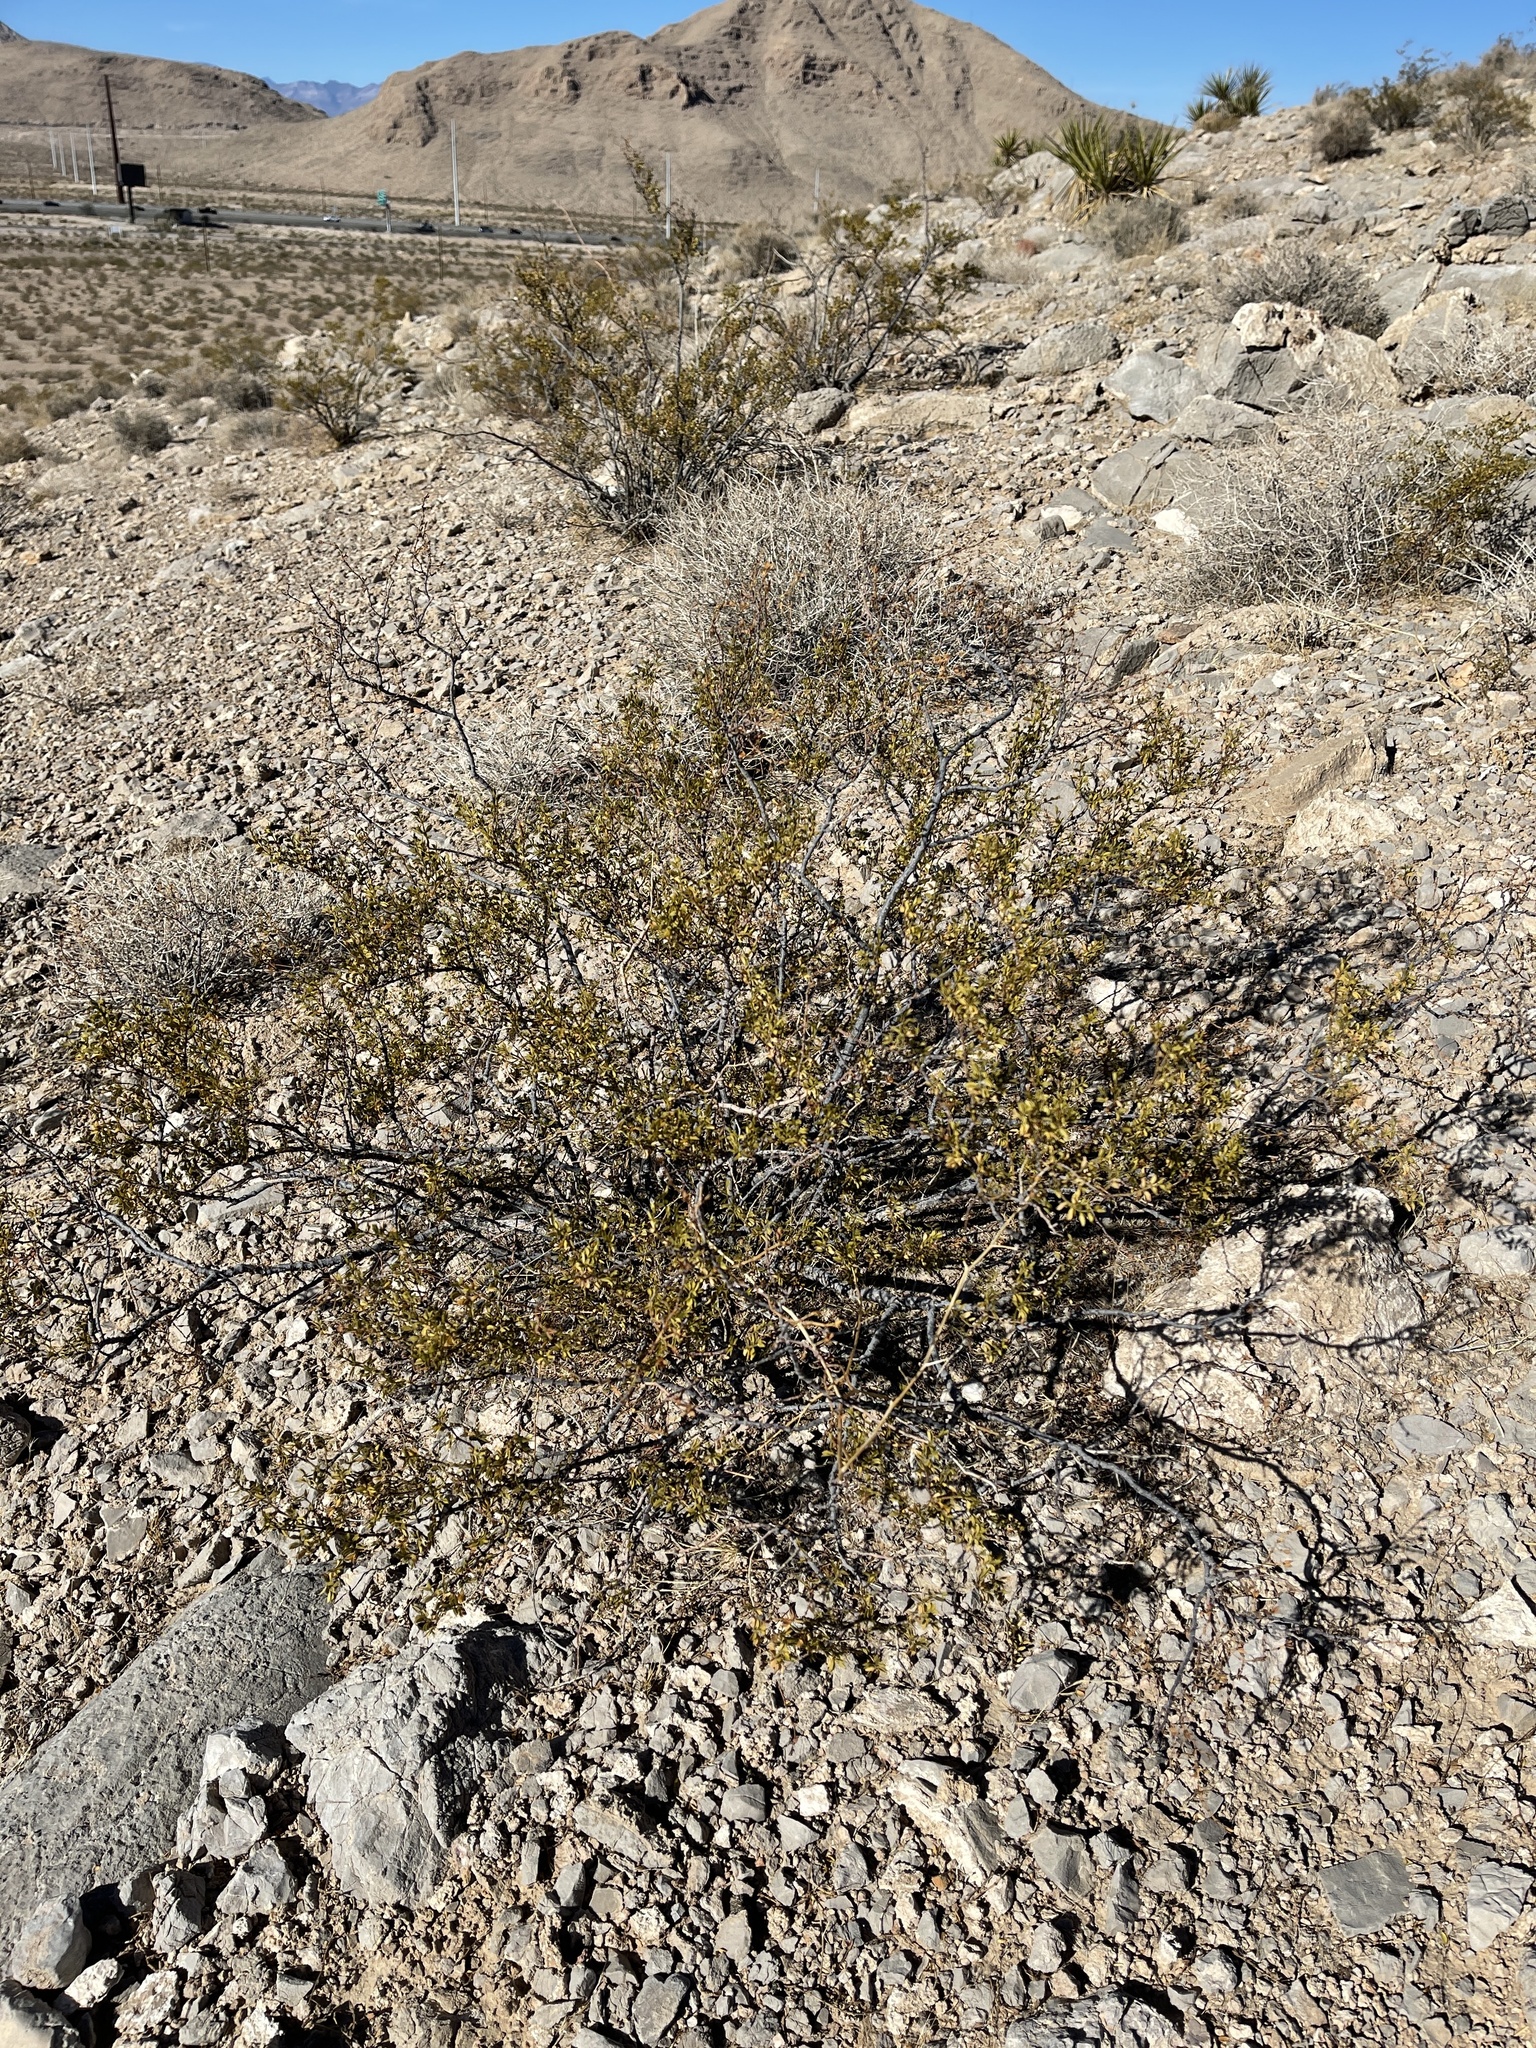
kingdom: Plantae
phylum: Tracheophyta
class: Magnoliopsida
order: Zygophyllales
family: Zygophyllaceae
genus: Larrea
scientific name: Larrea tridentata
